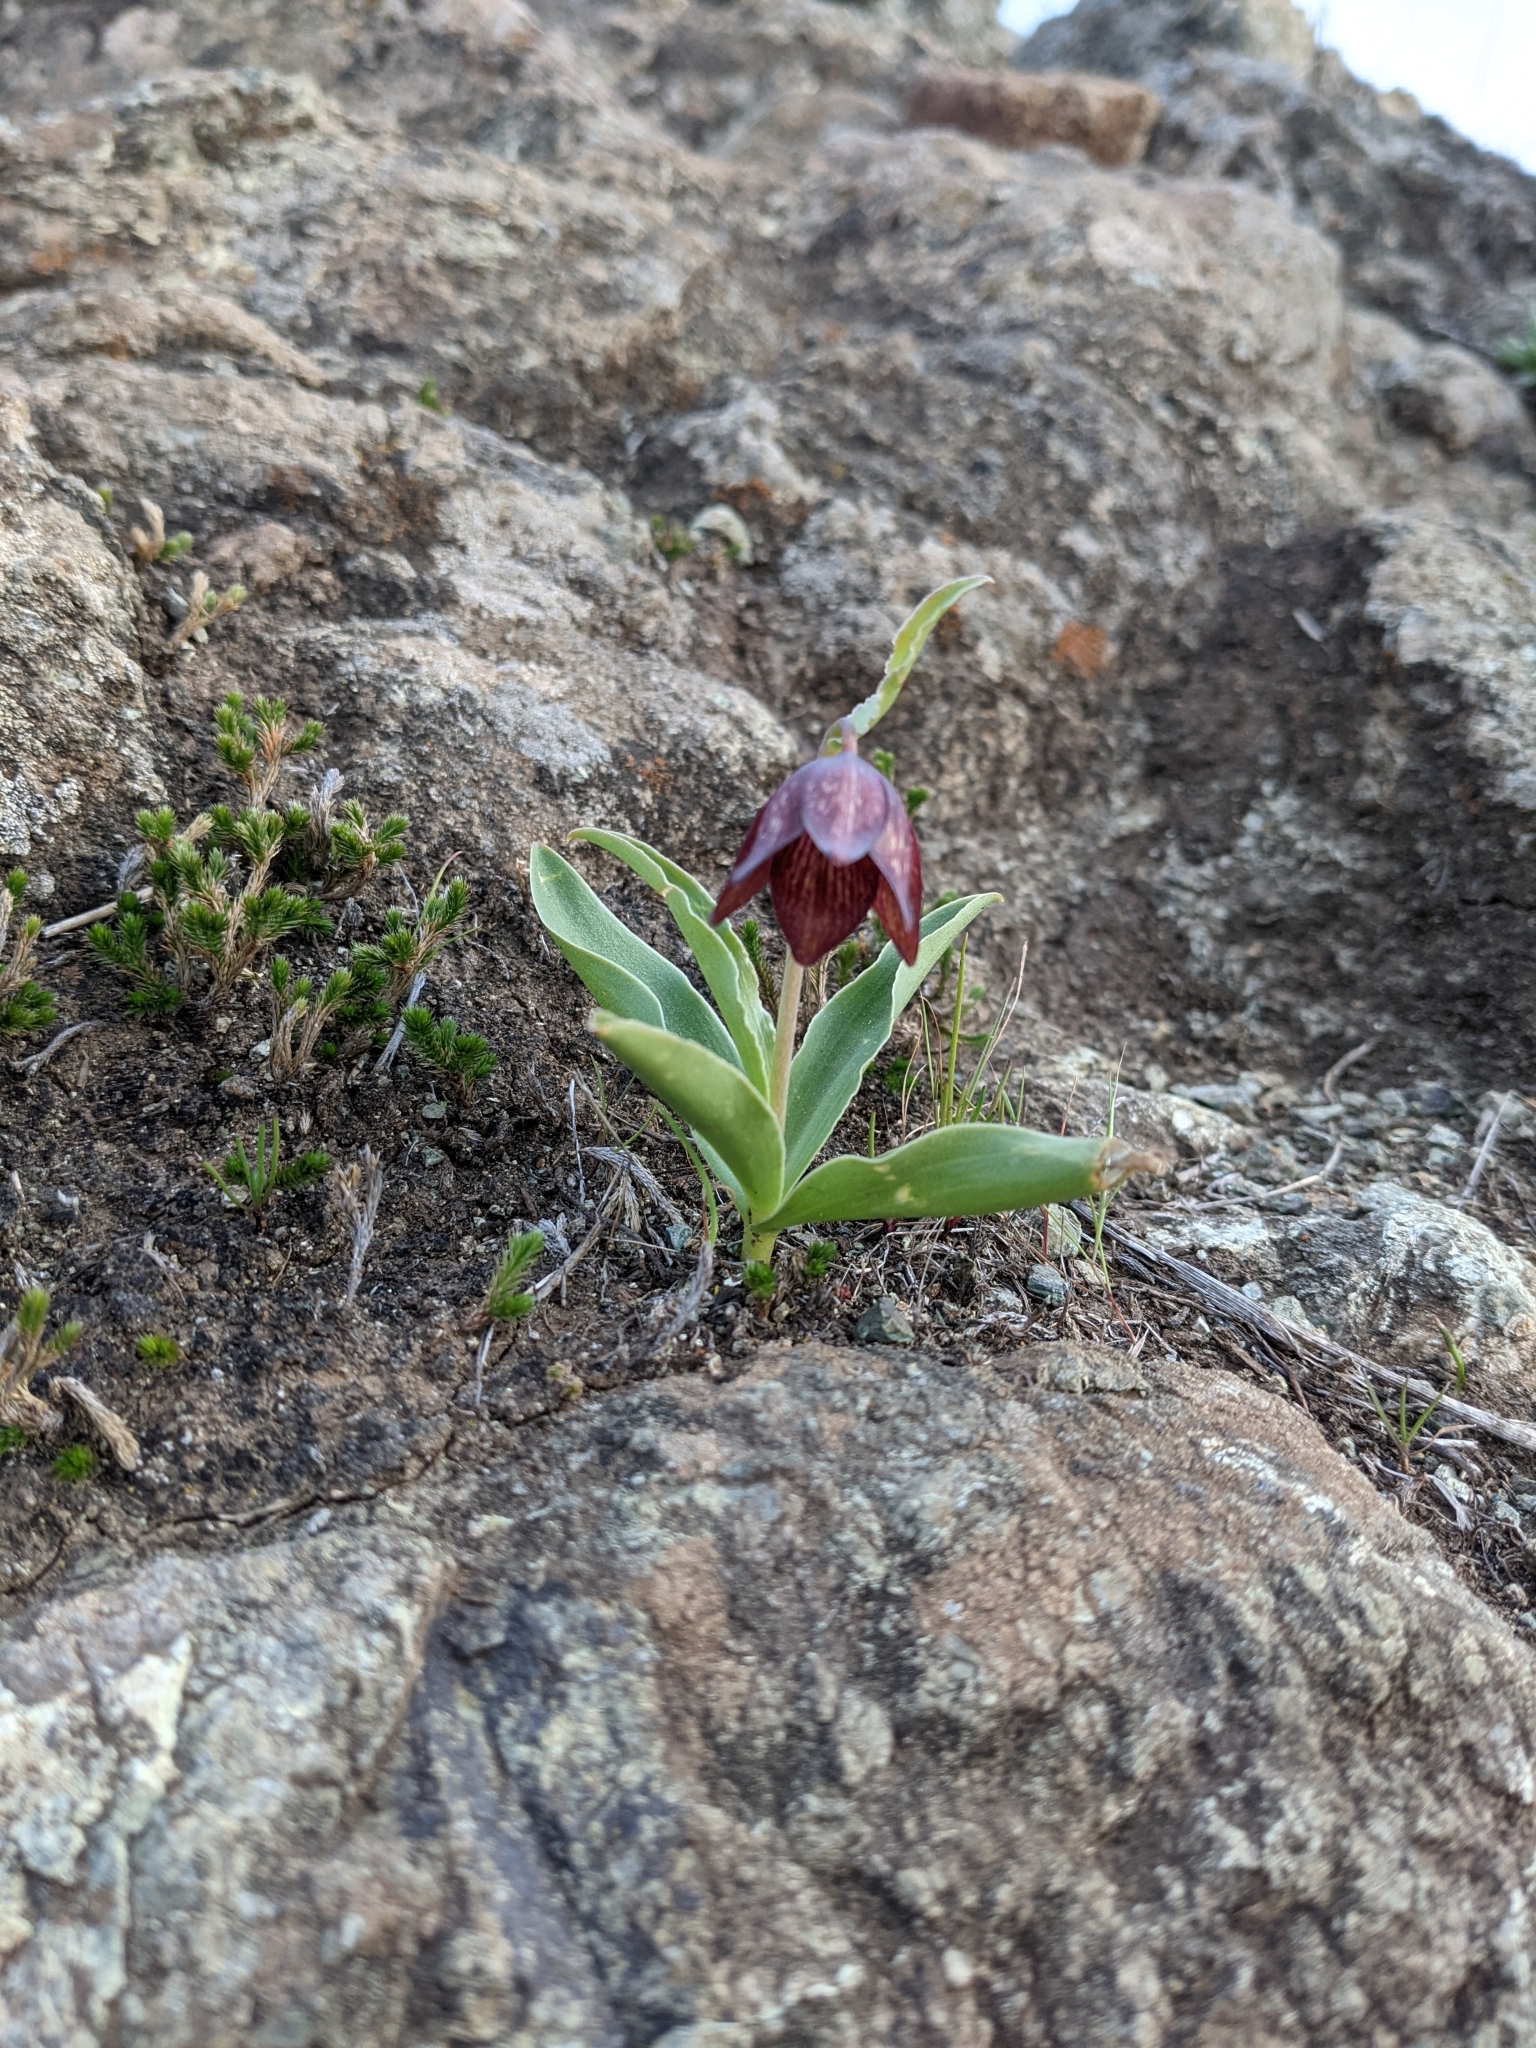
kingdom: Plantae
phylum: Tracheophyta
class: Liliopsida
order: Liliales
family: Liliaceae
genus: Fritillaria
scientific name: Fritillaria biflora
